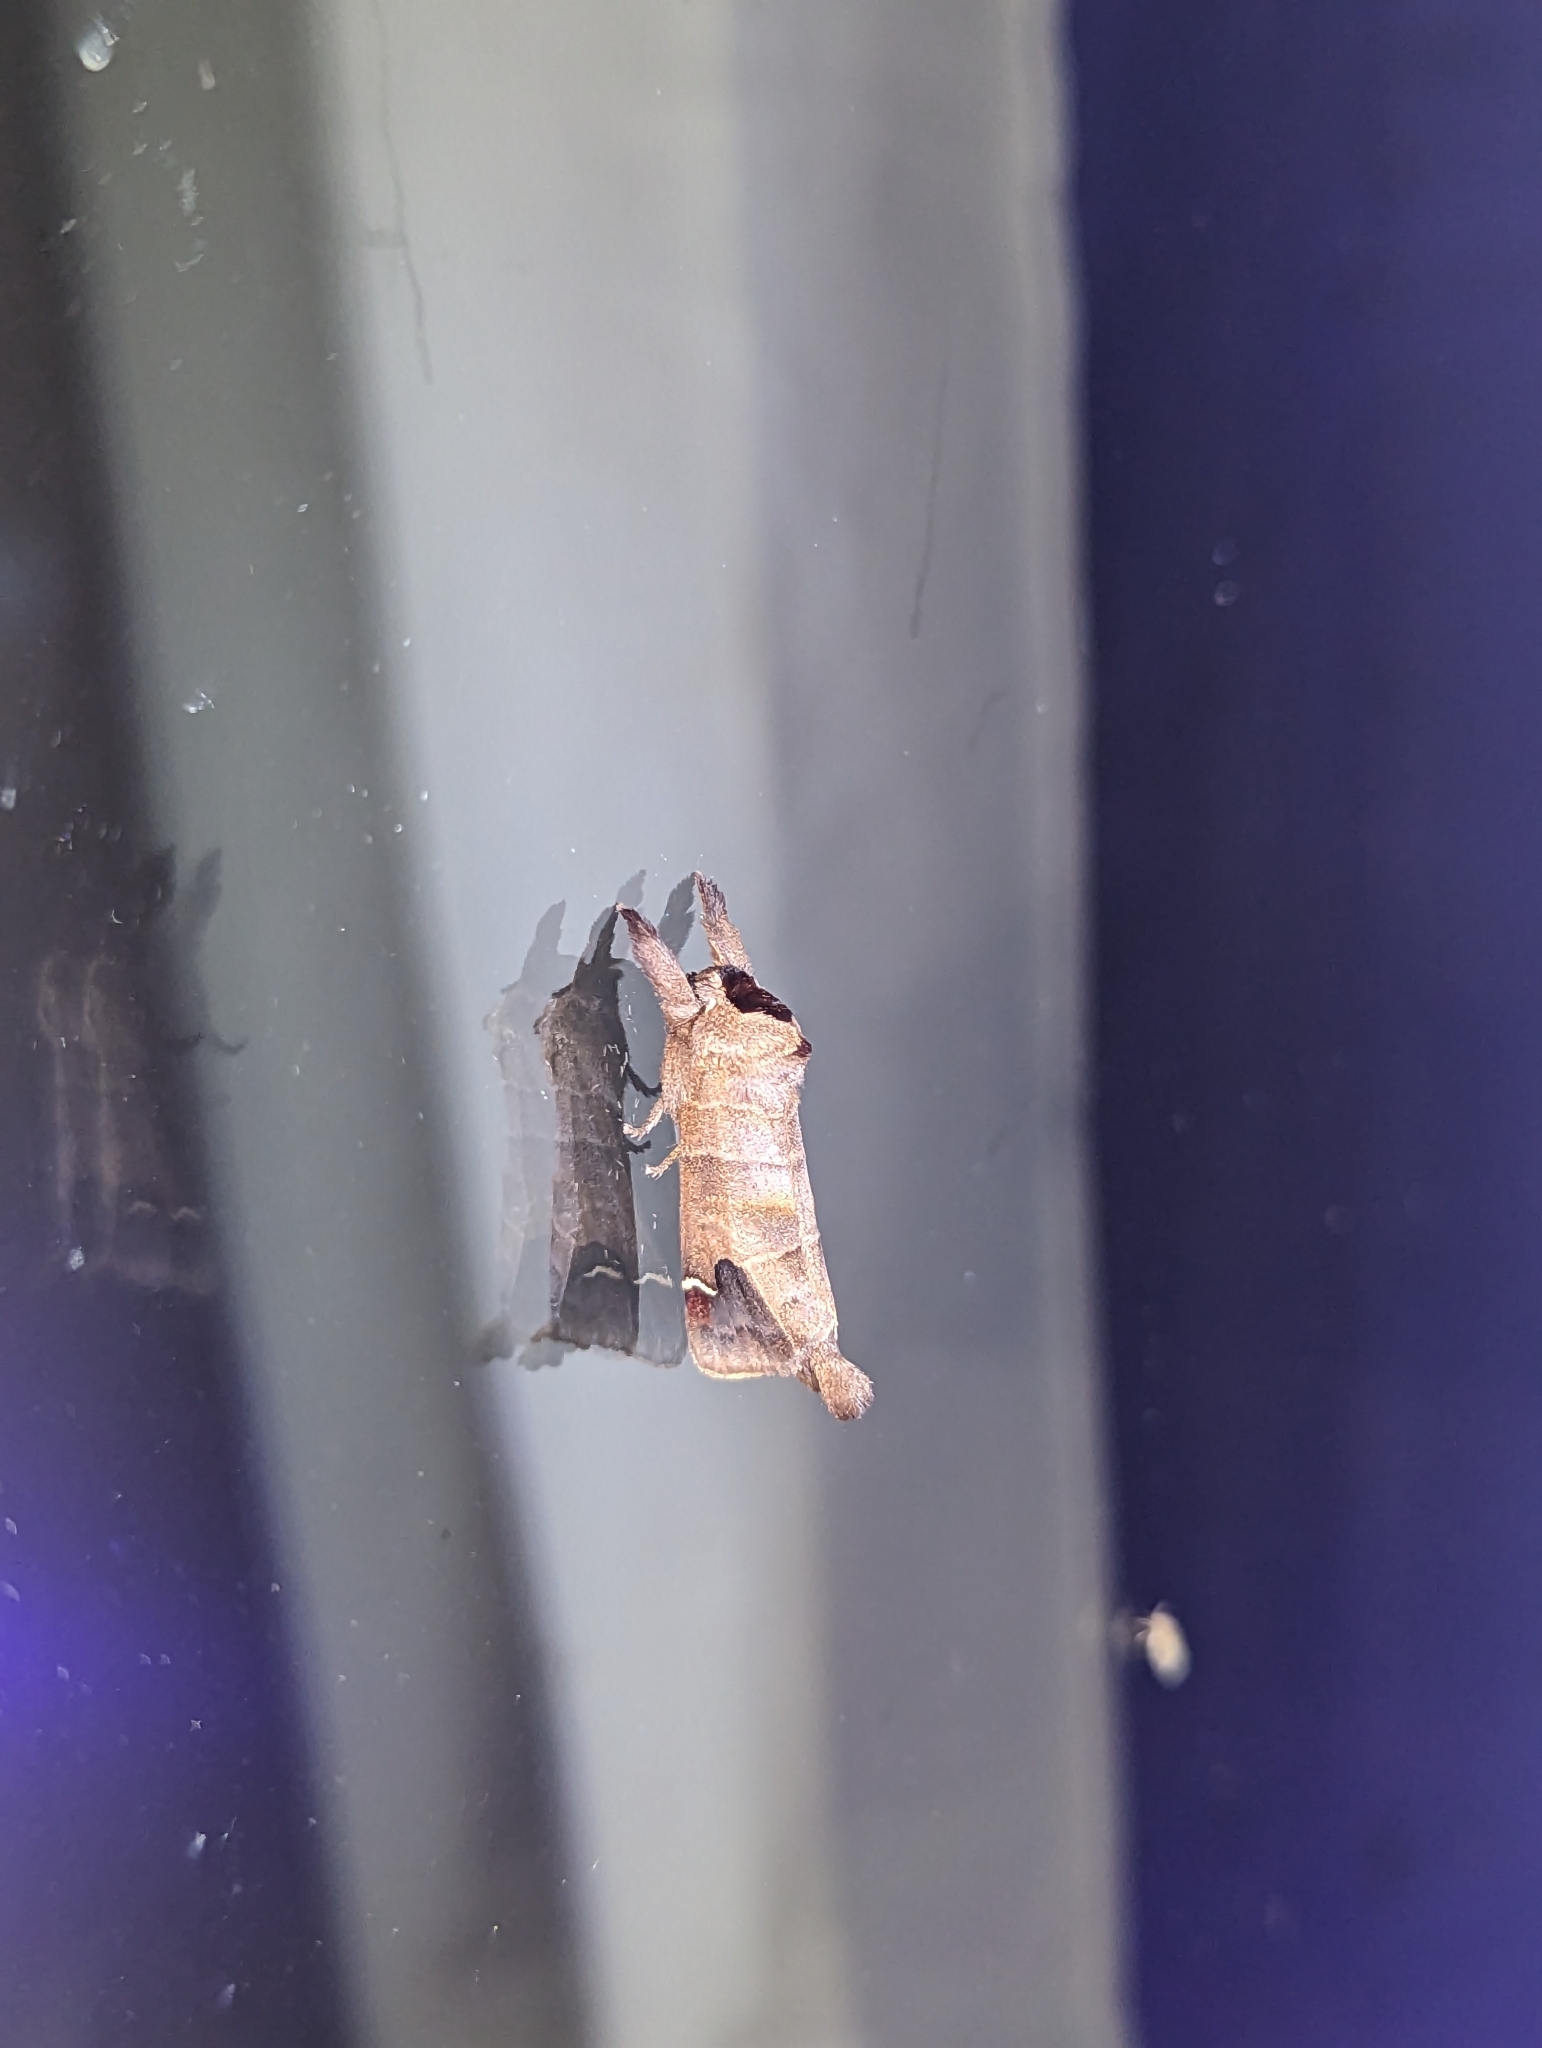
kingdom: Animalia
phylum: Arthropoda
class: Insecta
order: Lepidoptera
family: Notodontidae
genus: Clostera
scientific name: Clostera albosigma
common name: Sigmoid prominent
